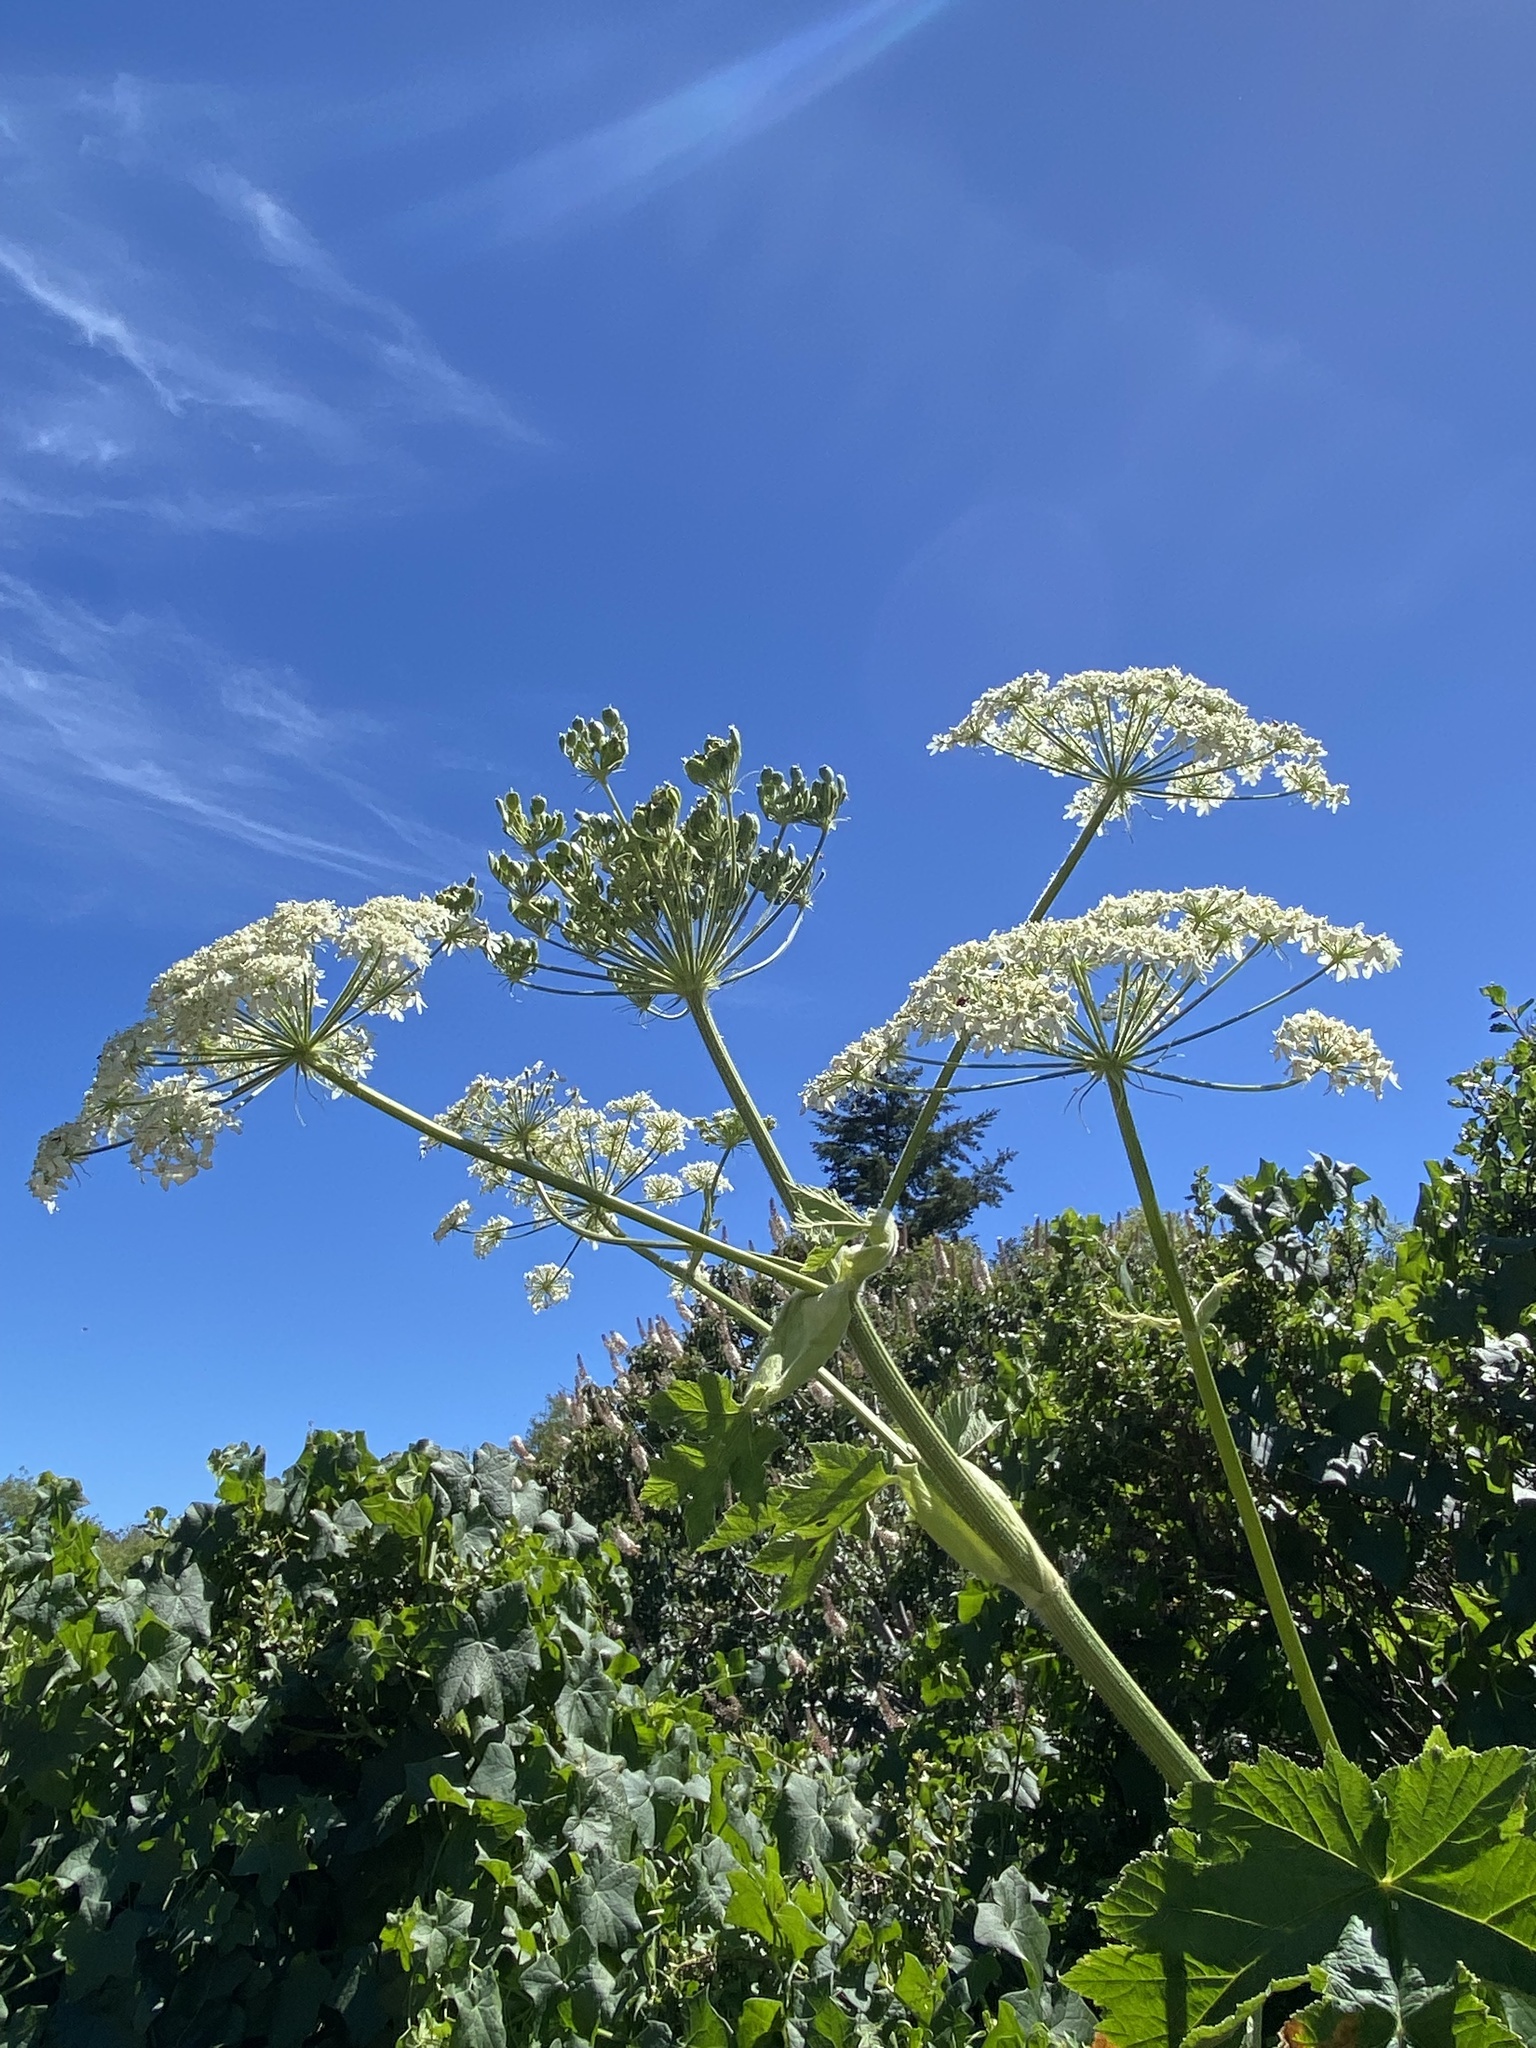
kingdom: Plantae
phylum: Tracheophyta
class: Magnoliopsida
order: Apiales
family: Apiaceae
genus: Heracleum
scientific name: Heracleum maximum
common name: American cow parsnip
